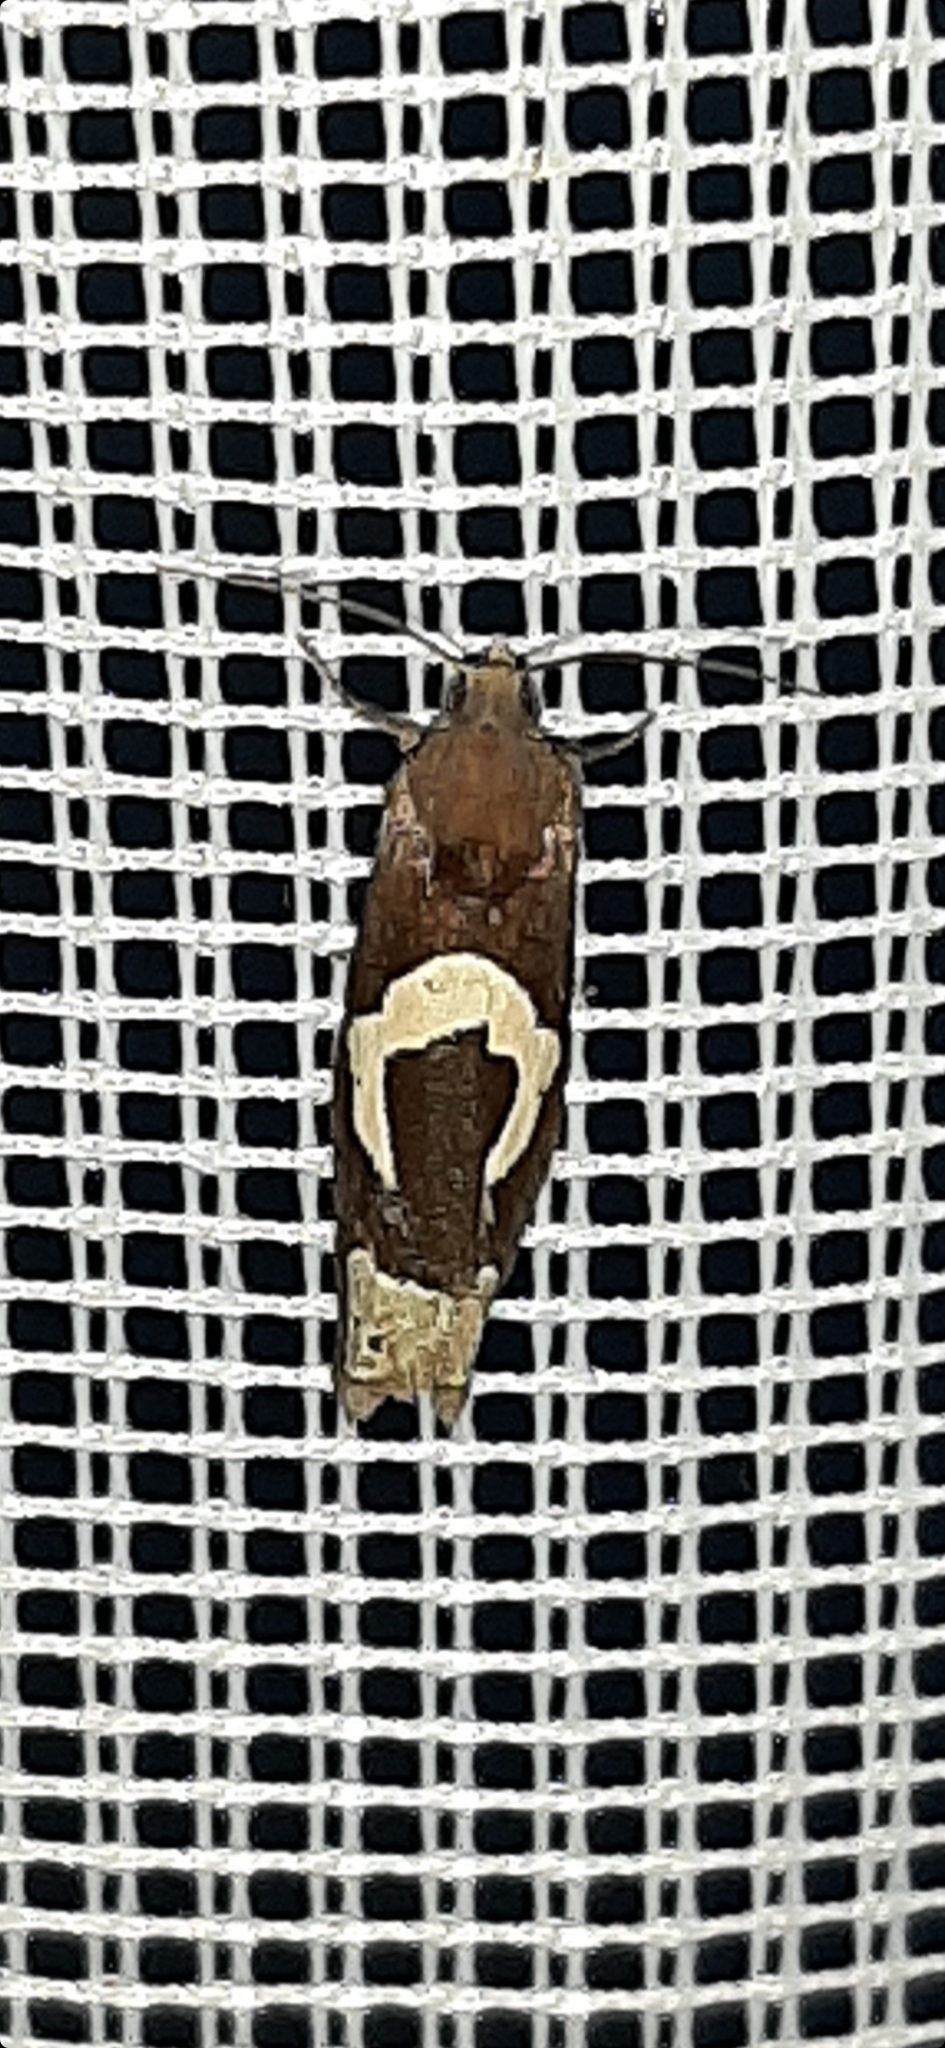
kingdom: Animalia
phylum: Arthropoda
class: Insecta
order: Lepidoptera
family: Tortricidae
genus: Epiblema
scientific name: Epiblema foenella
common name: White-foot bell
